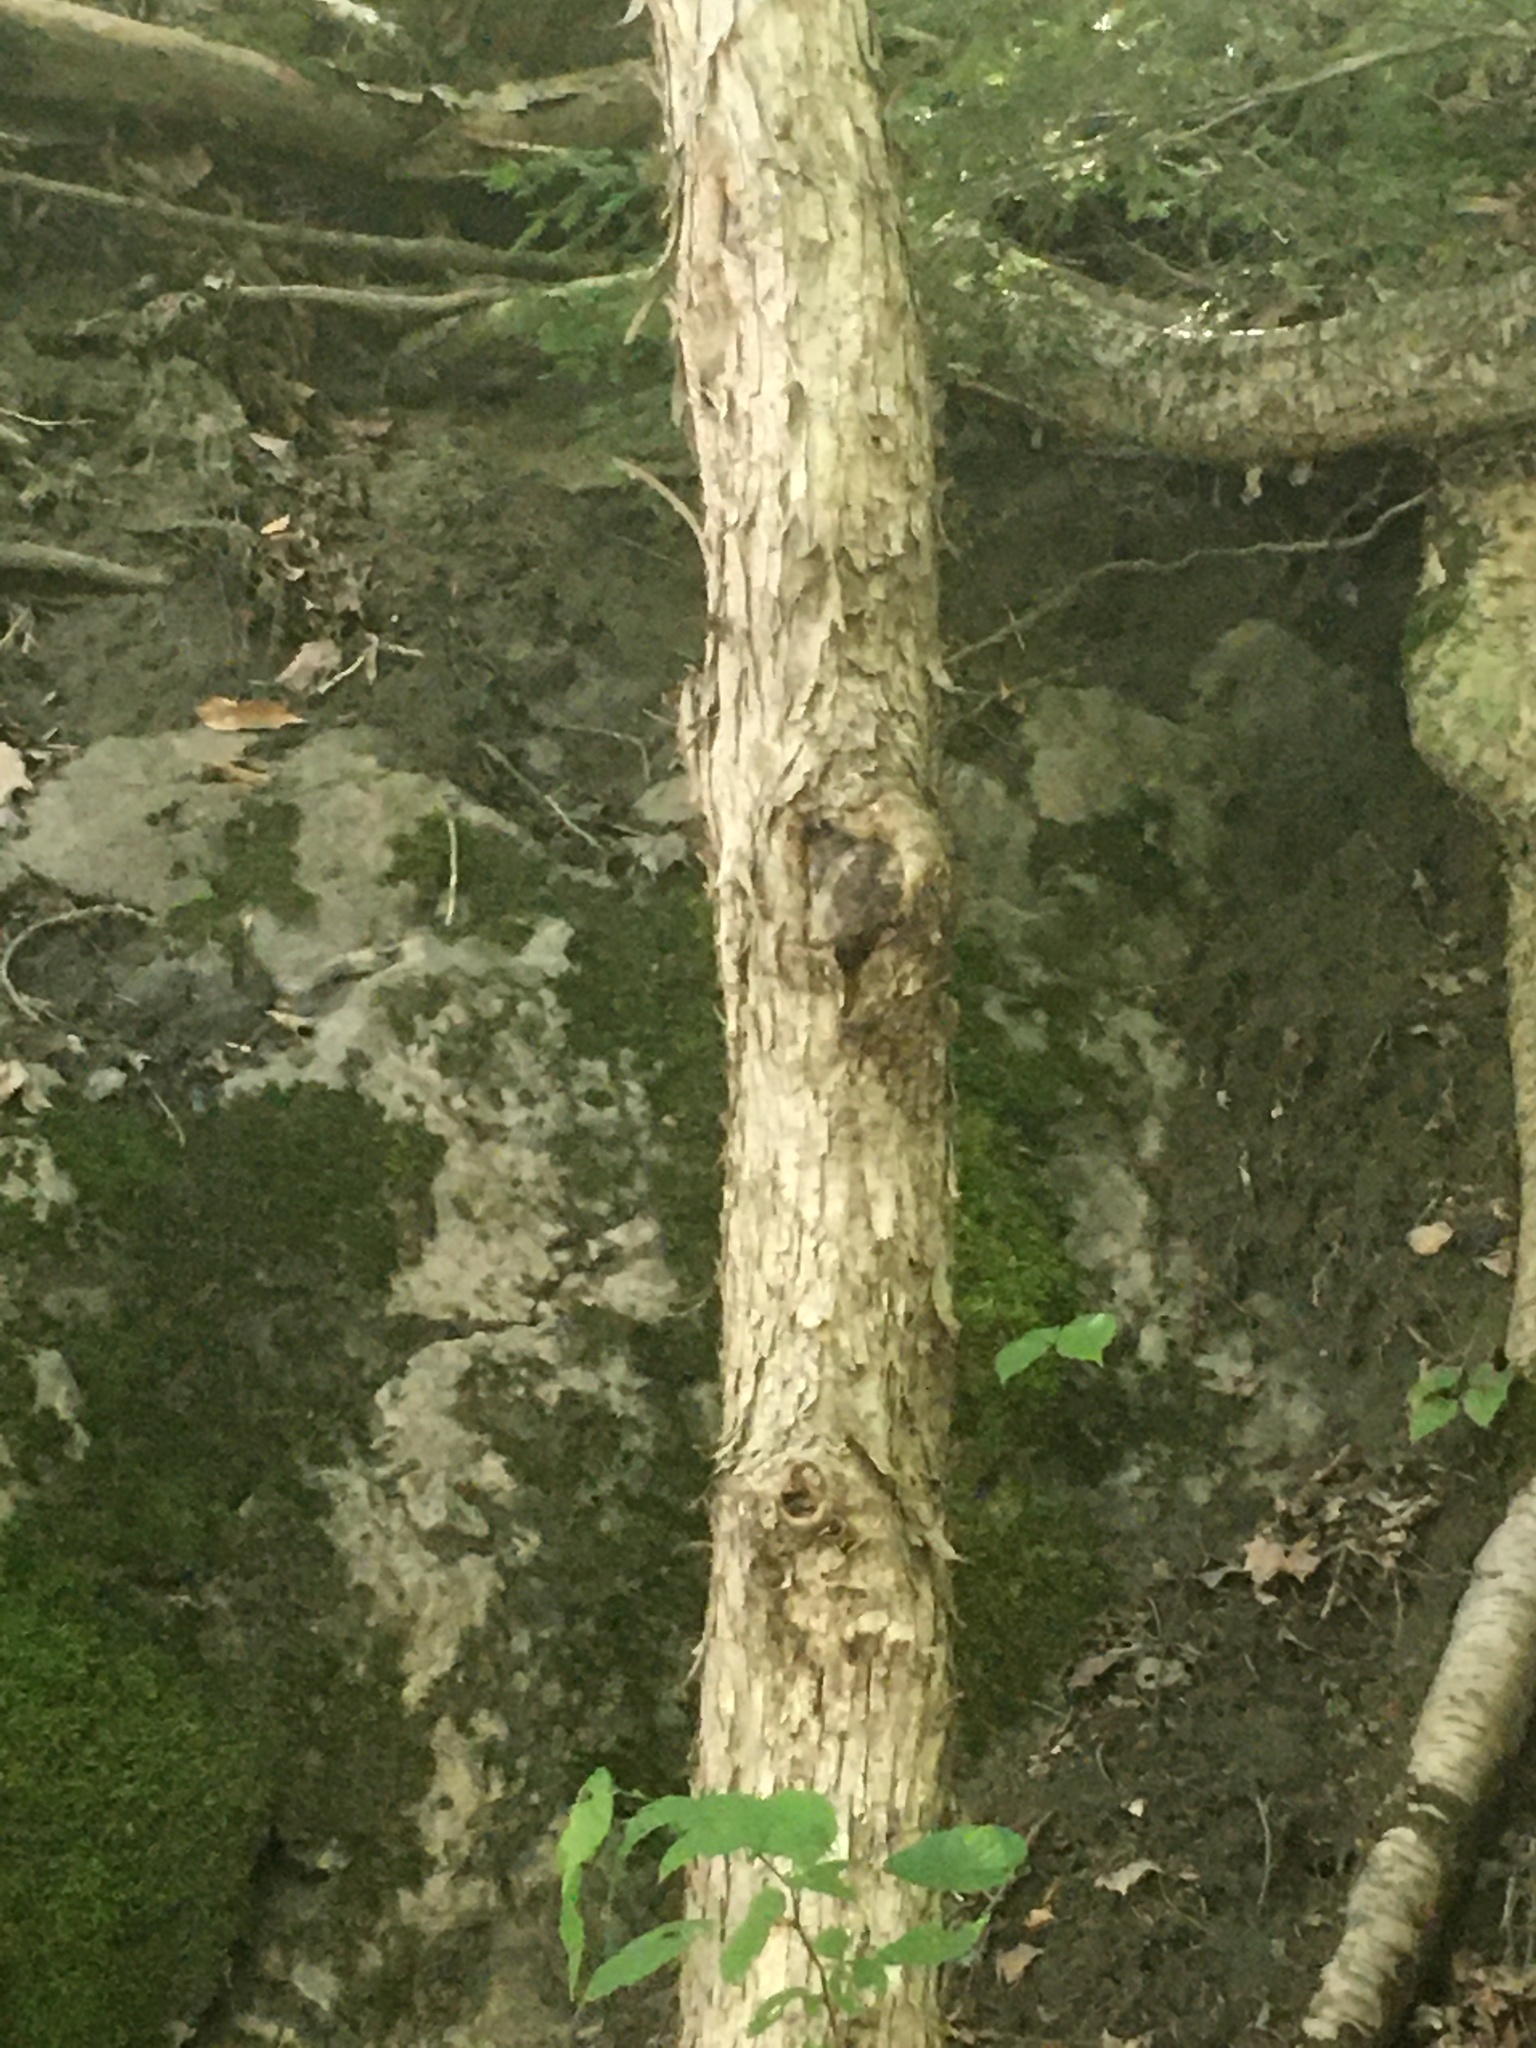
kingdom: Plantae
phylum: Tracheophyta
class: Magnoliopsida
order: Fagales
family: Betulaceae
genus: Ostrya
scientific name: Ostrya virginiana
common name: Ironwood
